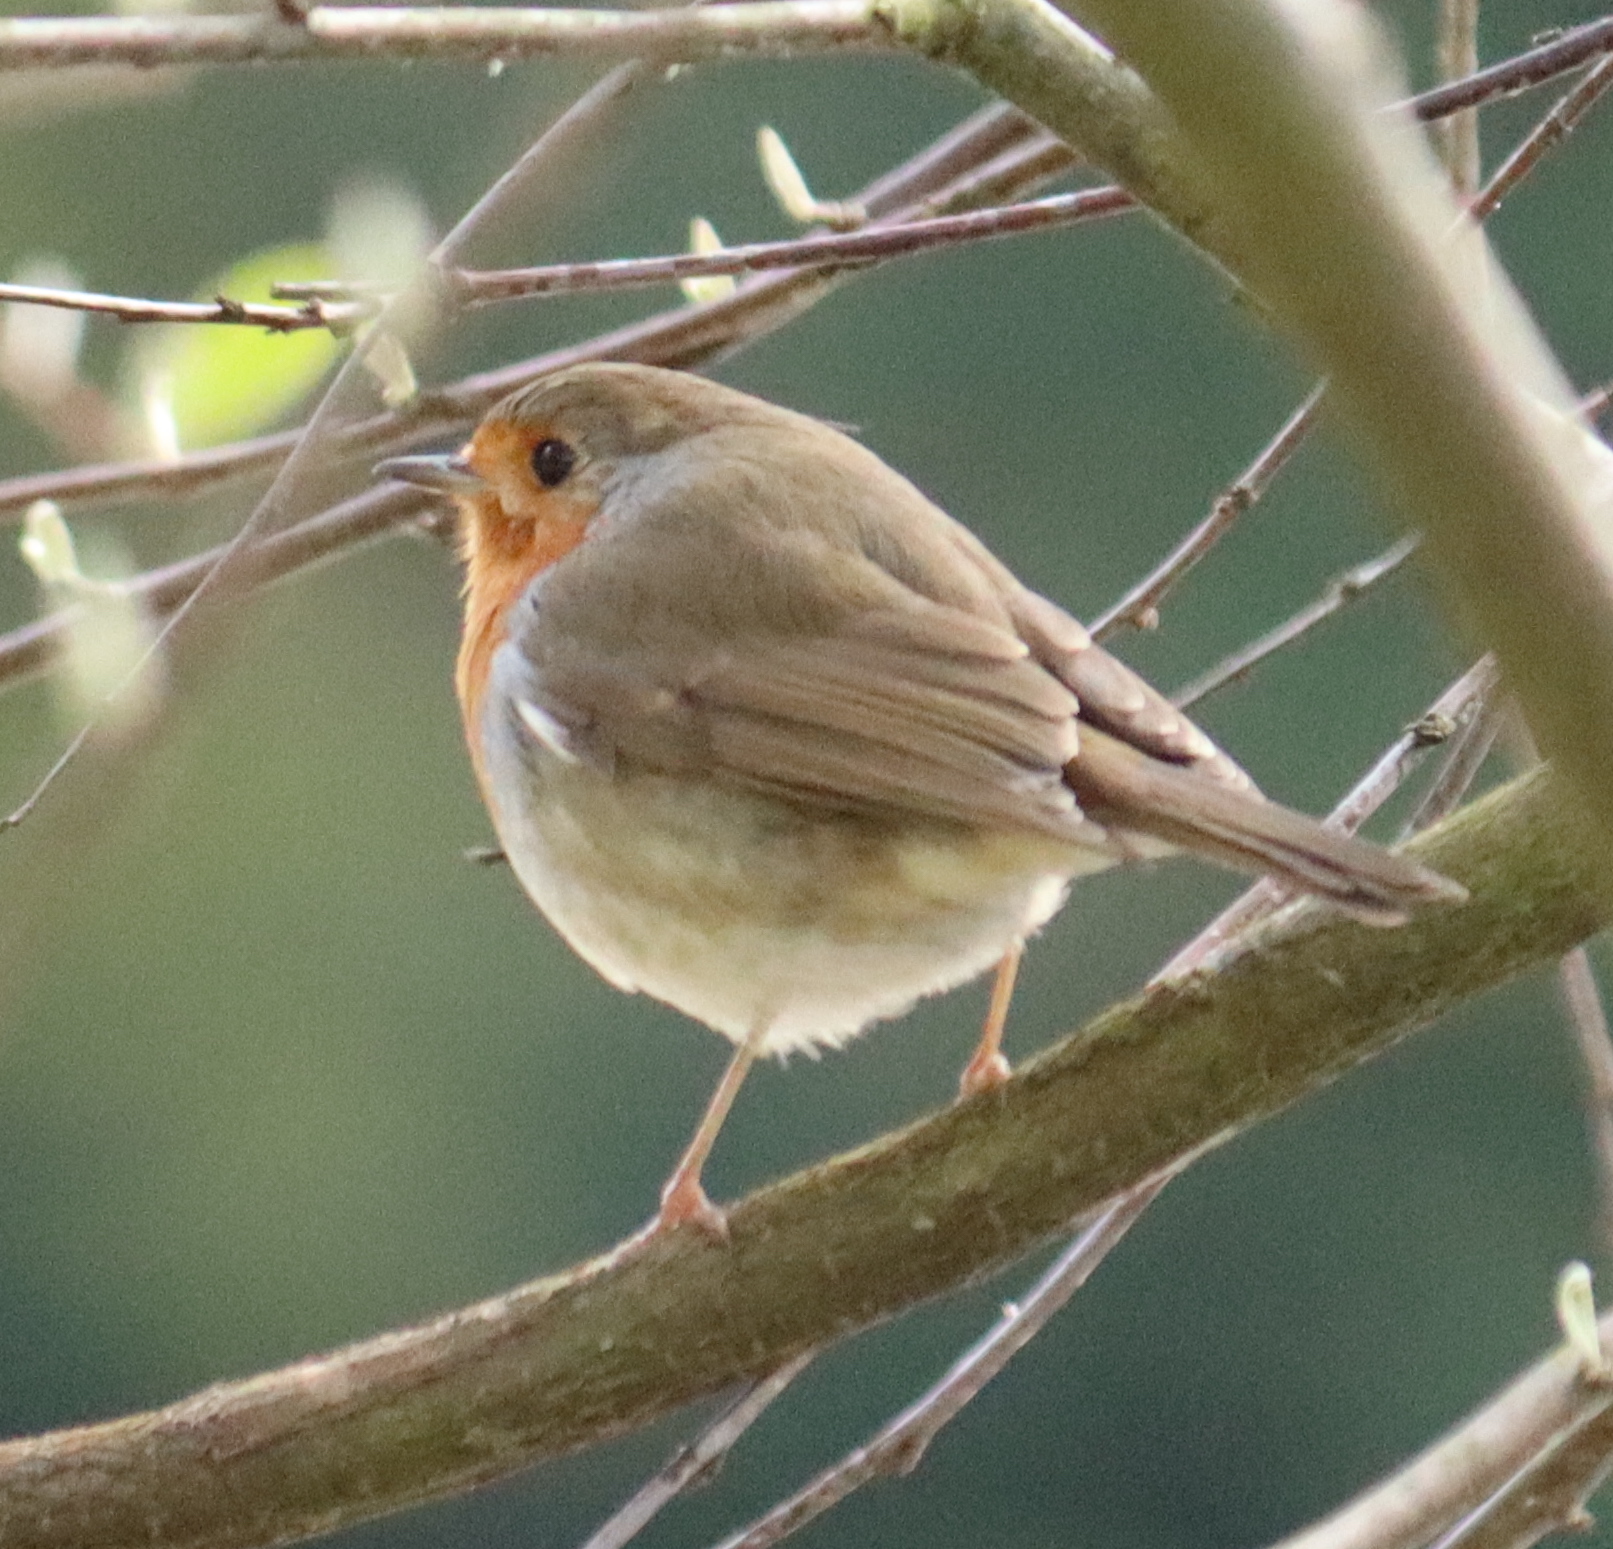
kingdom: Animalia
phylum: Chordata
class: Aves
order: Passeriformes
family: Muscicapidae
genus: Erithacus
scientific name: Erithacus rubecula
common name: European robin
